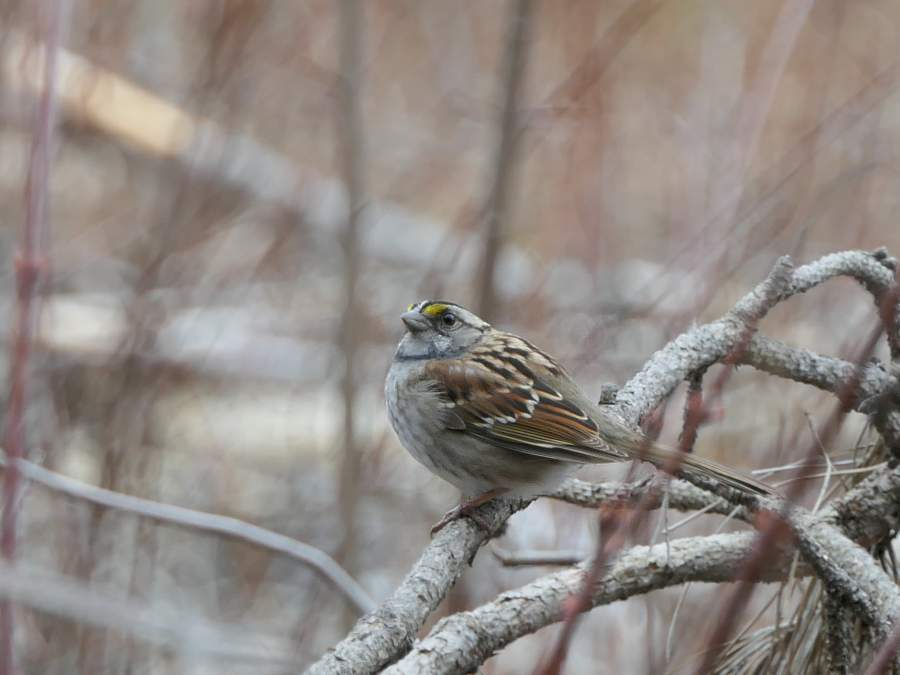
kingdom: Animalia
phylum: Chordata
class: Aves
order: Passeriformes
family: Passerellidae
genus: Zonotrichia
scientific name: Zonotrichia albicollis
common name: White-throated sparrow
